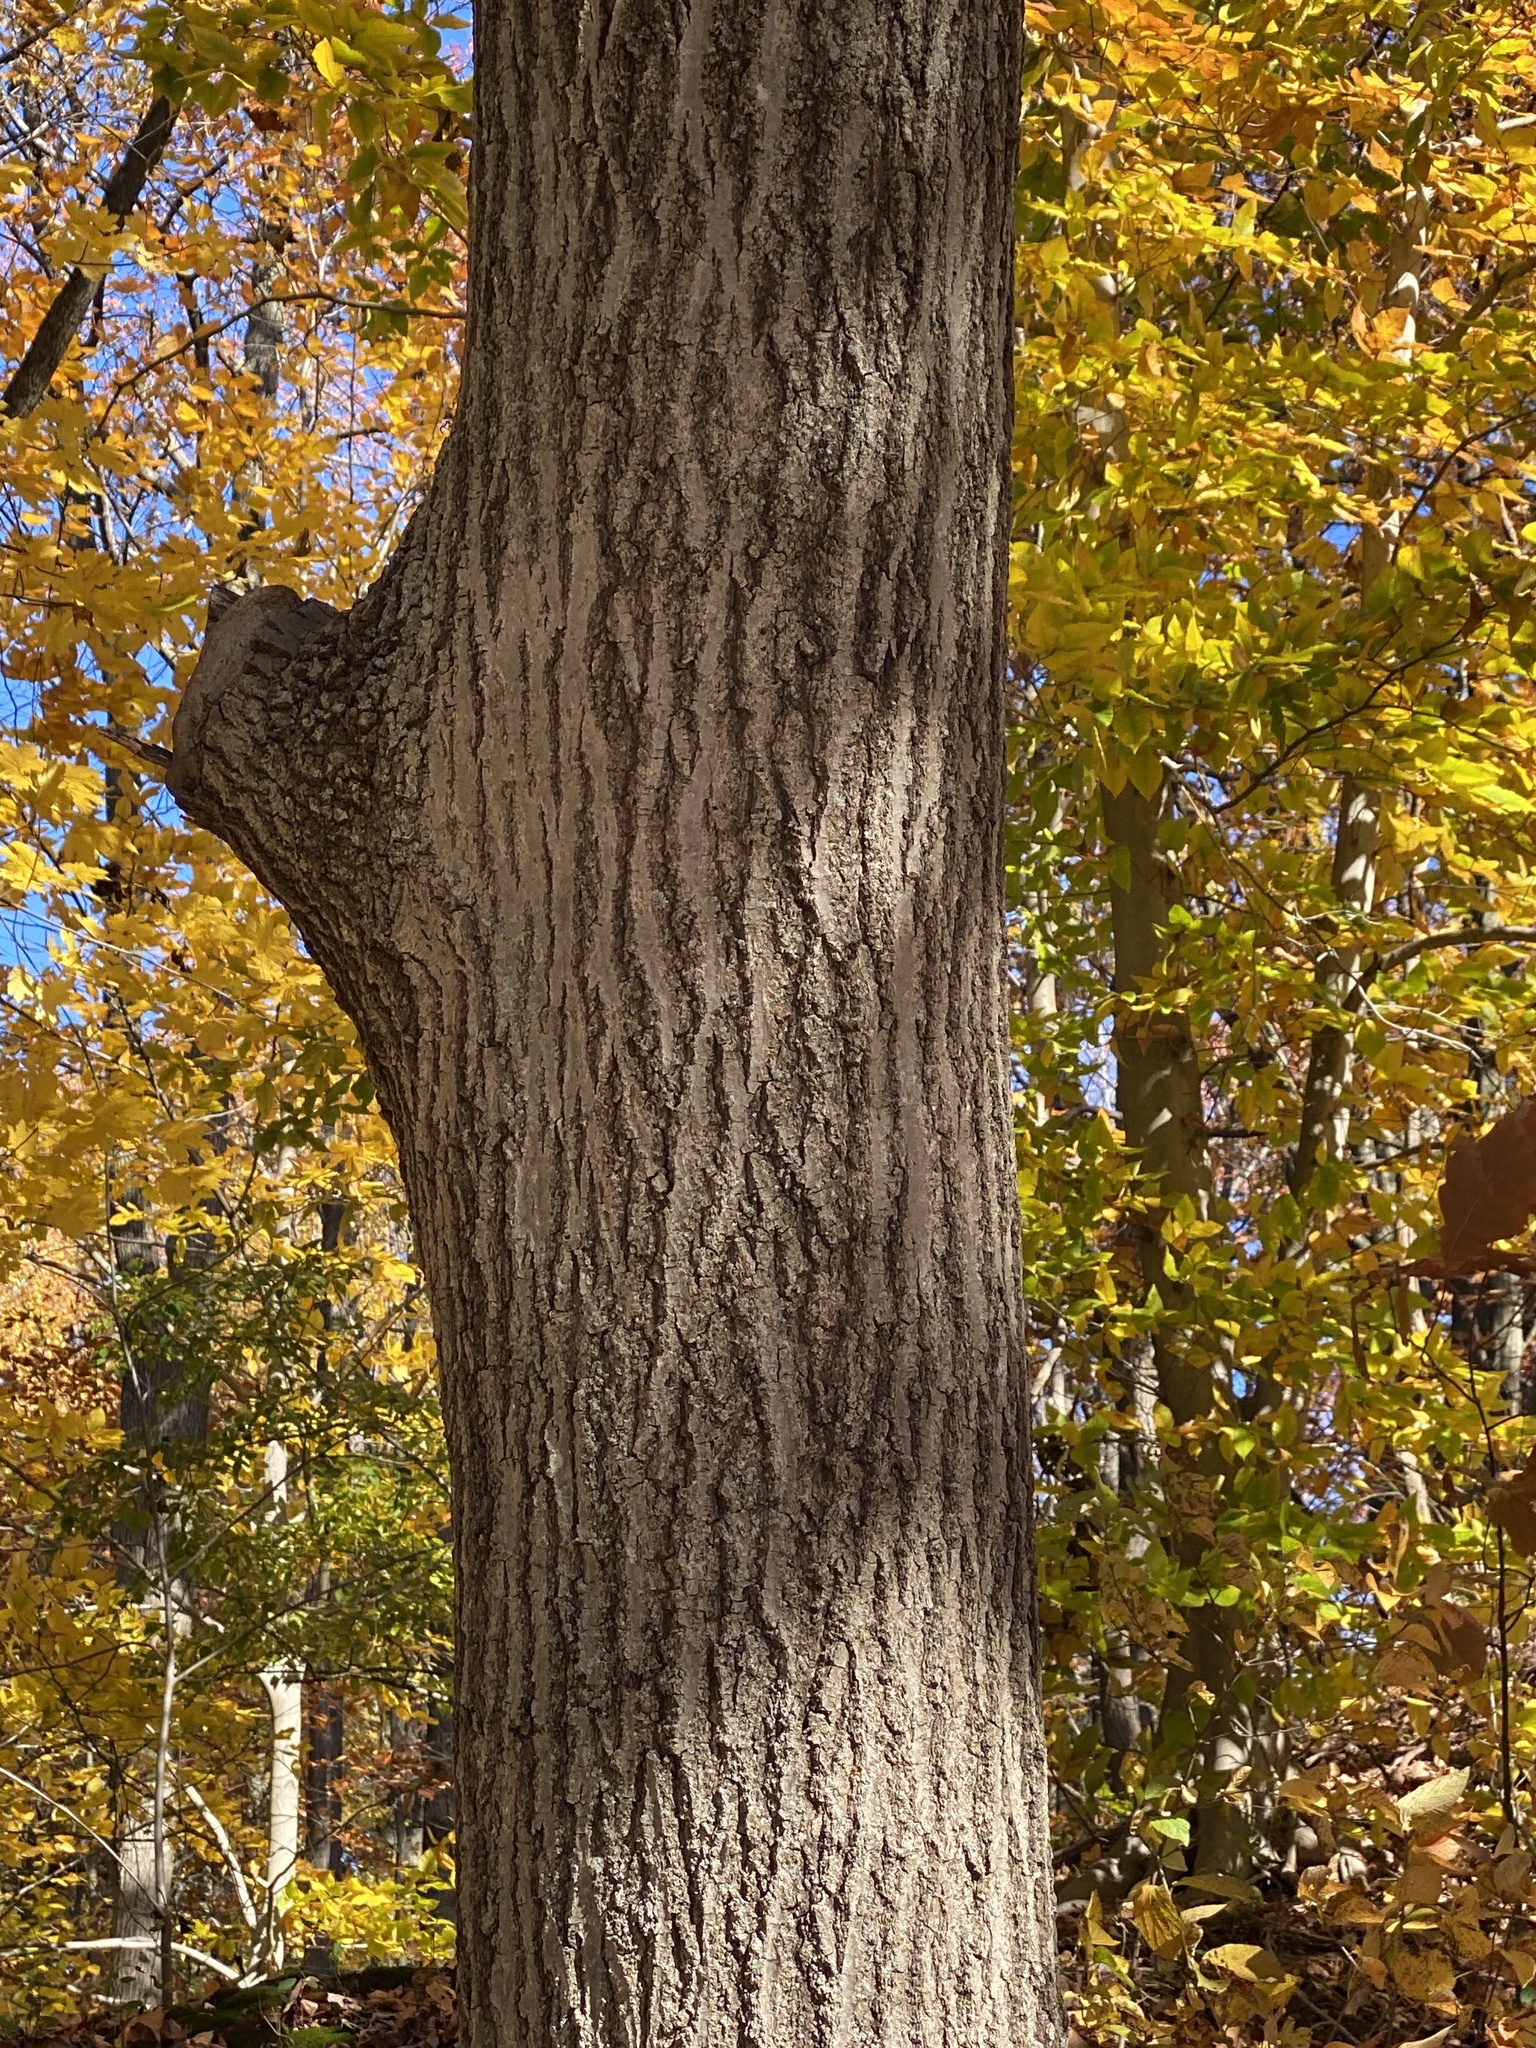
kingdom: Plantae
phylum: Tracheophyta
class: Magnoliopsida
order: Fagales
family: Fagaceae
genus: Quercus
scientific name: Quercus rubra
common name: Red oak
